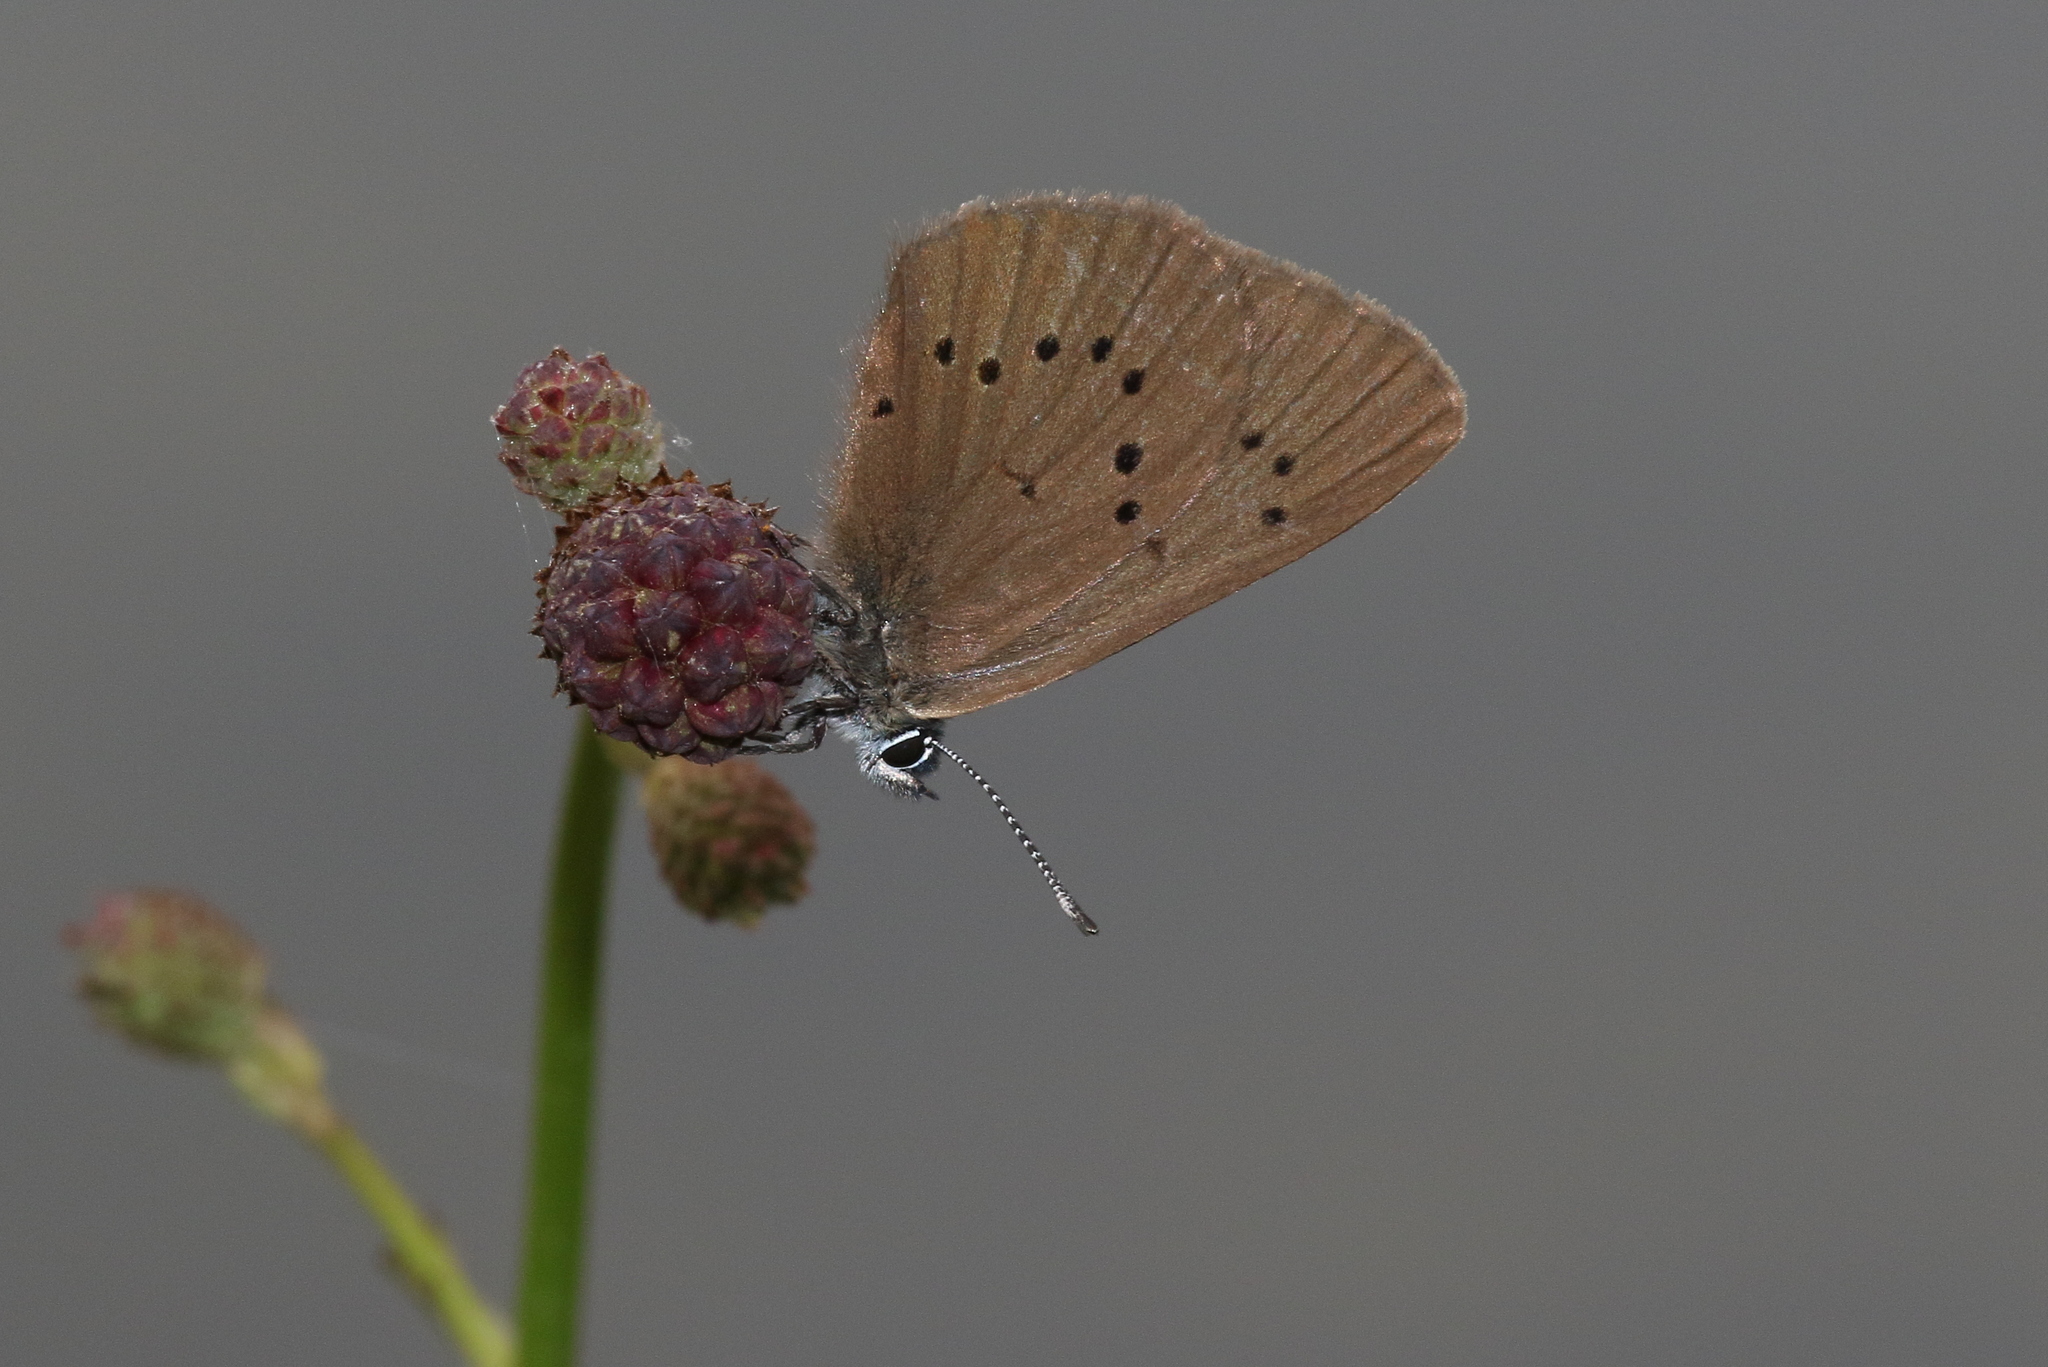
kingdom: Animalia
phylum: Arthropoda
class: Insecta
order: Lepidoptera
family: Lycaenidae
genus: Maculinea
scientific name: Maculinea nausithous
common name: Dusky large blue
